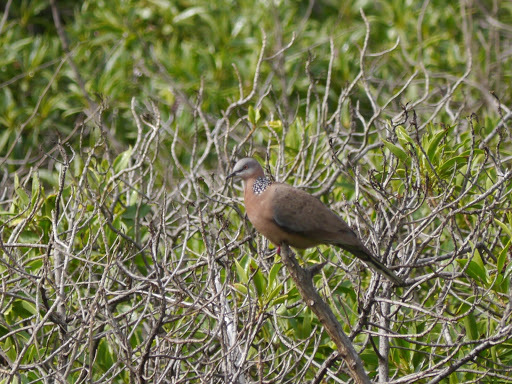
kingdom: Animalia
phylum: Chordata
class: Aves
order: Columbiformes
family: Columbidae
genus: Spilopelia
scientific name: Spilopelia chinensis
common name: Spotted dove
